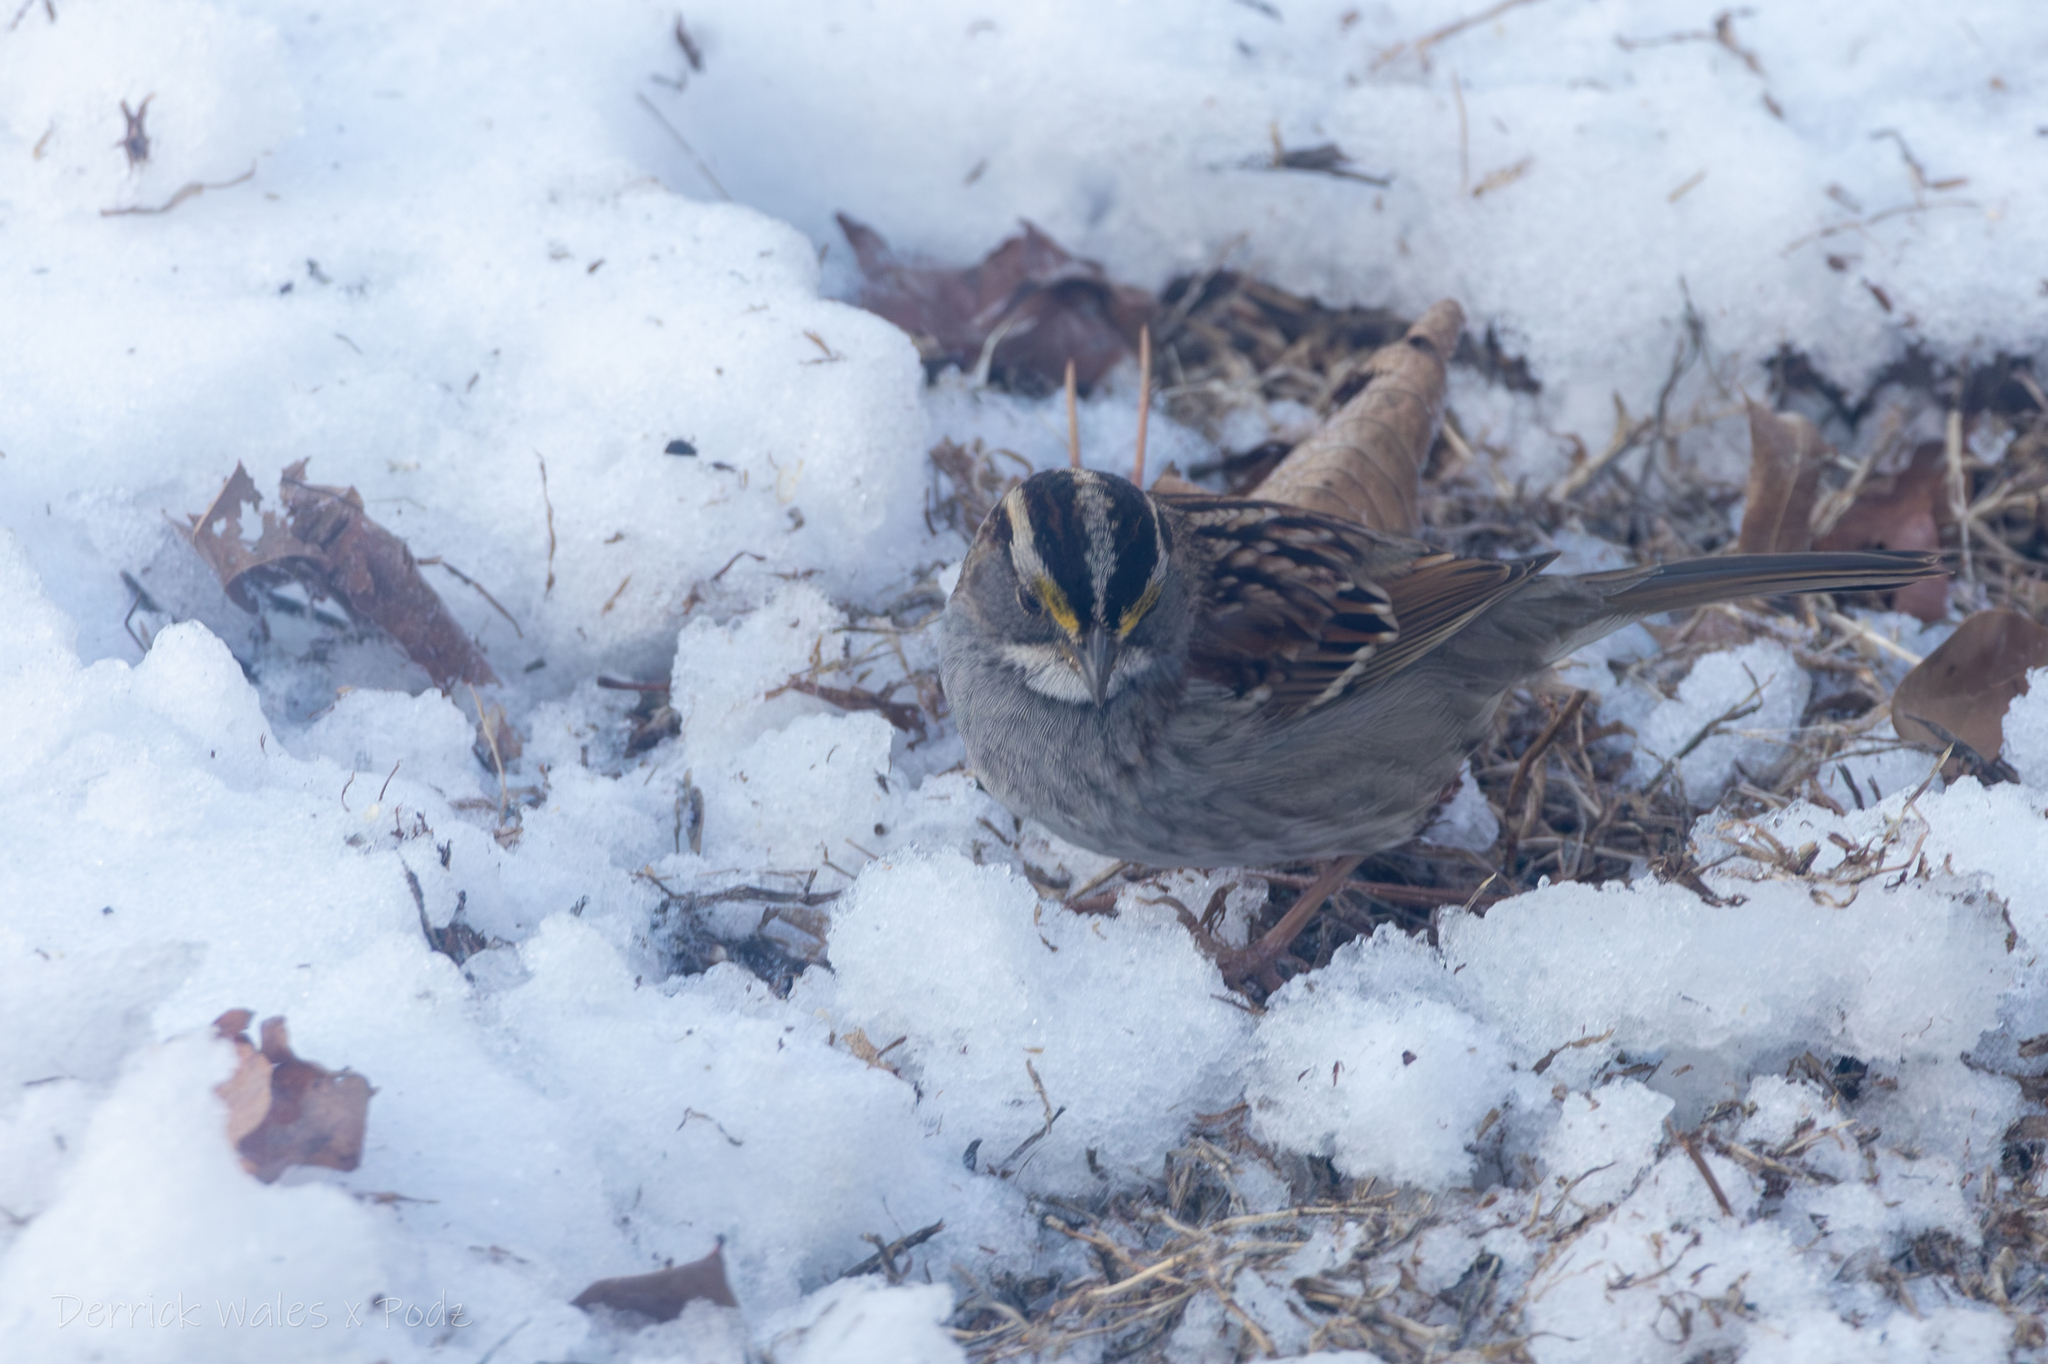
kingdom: Animalia
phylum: Chordata
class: Aves
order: Passeriformes
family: Passerellidae
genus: Zonotrichia
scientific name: Zonotrichia albicollis
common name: White-throated sparrow
